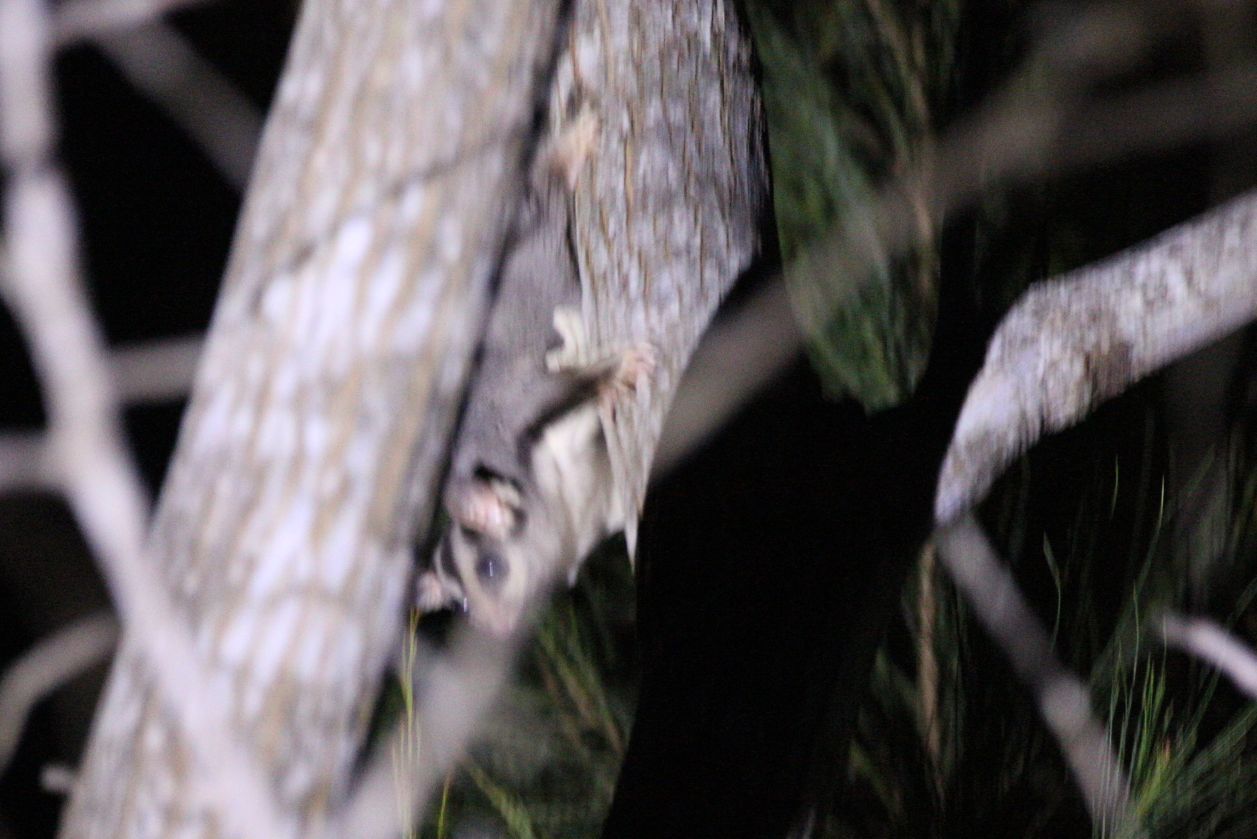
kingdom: Animalia
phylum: Chordata
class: Mammalia
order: Diprotodontia
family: Petauridae
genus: Petaurus
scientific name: Petaurus norfolcensis
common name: Squirrel glider
